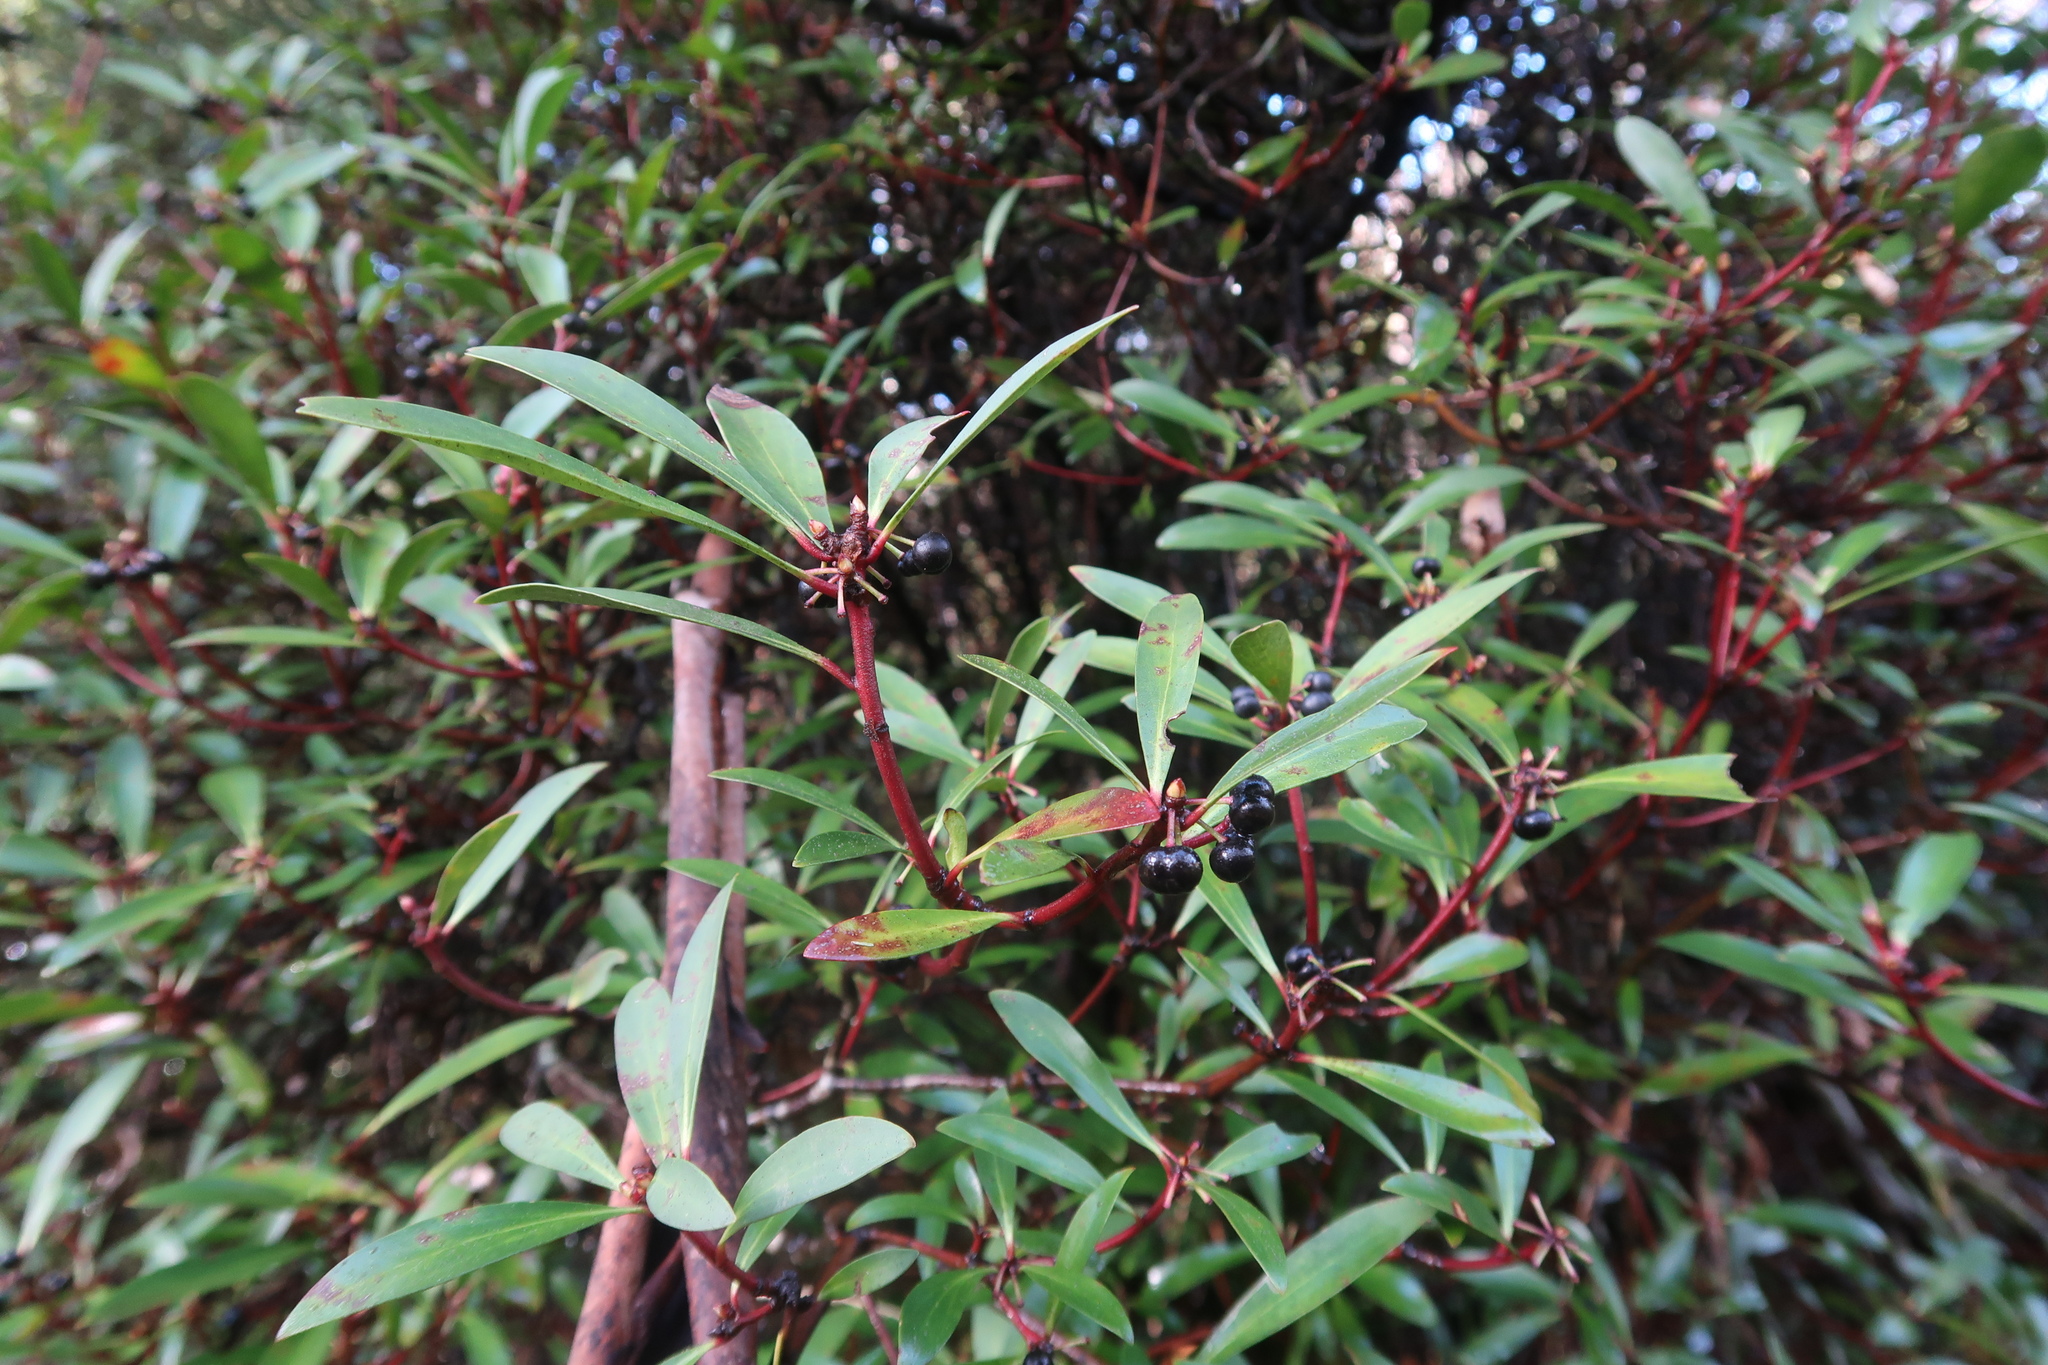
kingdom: Plantae
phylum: Tracheophyta
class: Magnoliopsida
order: Canellales
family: Winteraceae
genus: Drimys
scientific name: Drimys aromatica
